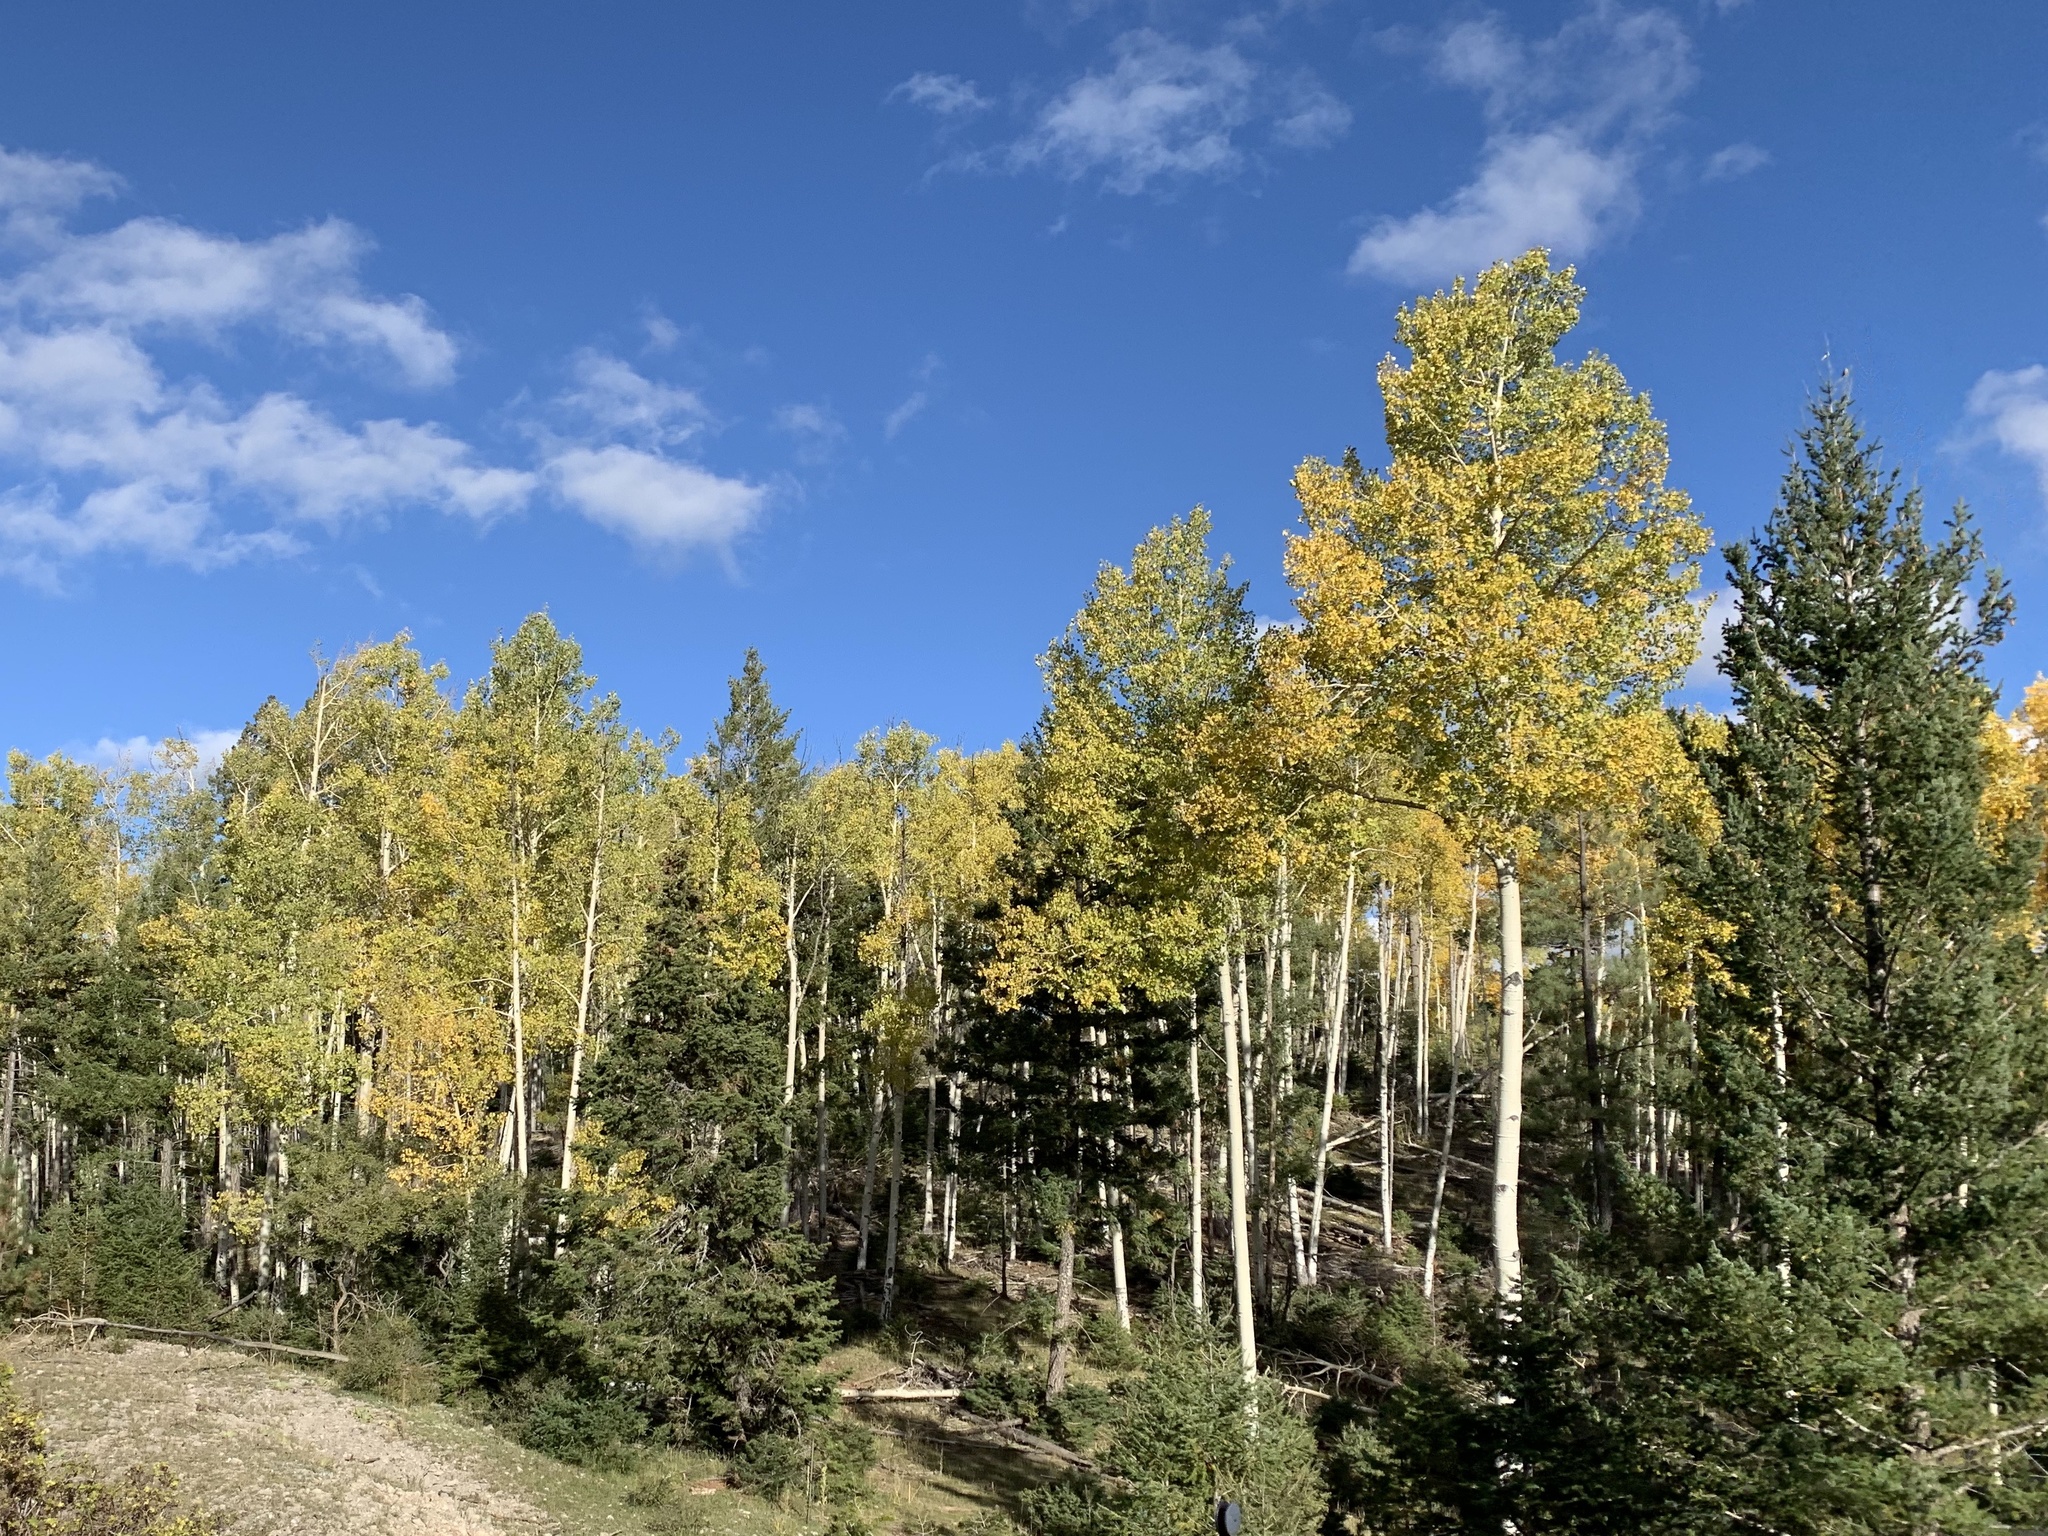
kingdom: Plantae
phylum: Tracheophyta
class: Magnoliopsida
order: Malpighiales
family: Salicaceae
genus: Populus
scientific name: Populus tremuloides
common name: Quaking aspen
